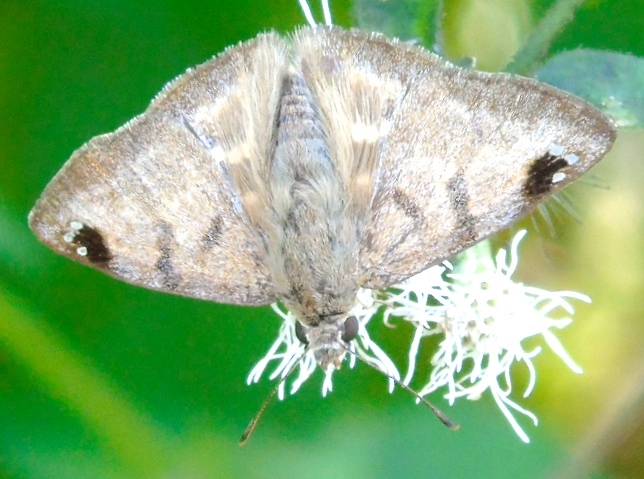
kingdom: Animalia
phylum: Arthropoda
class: Insecta
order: Lepidoptera
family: Hesperiidae
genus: Arteurotia
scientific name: Arteurotia tractipennis
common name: Starred skipper
